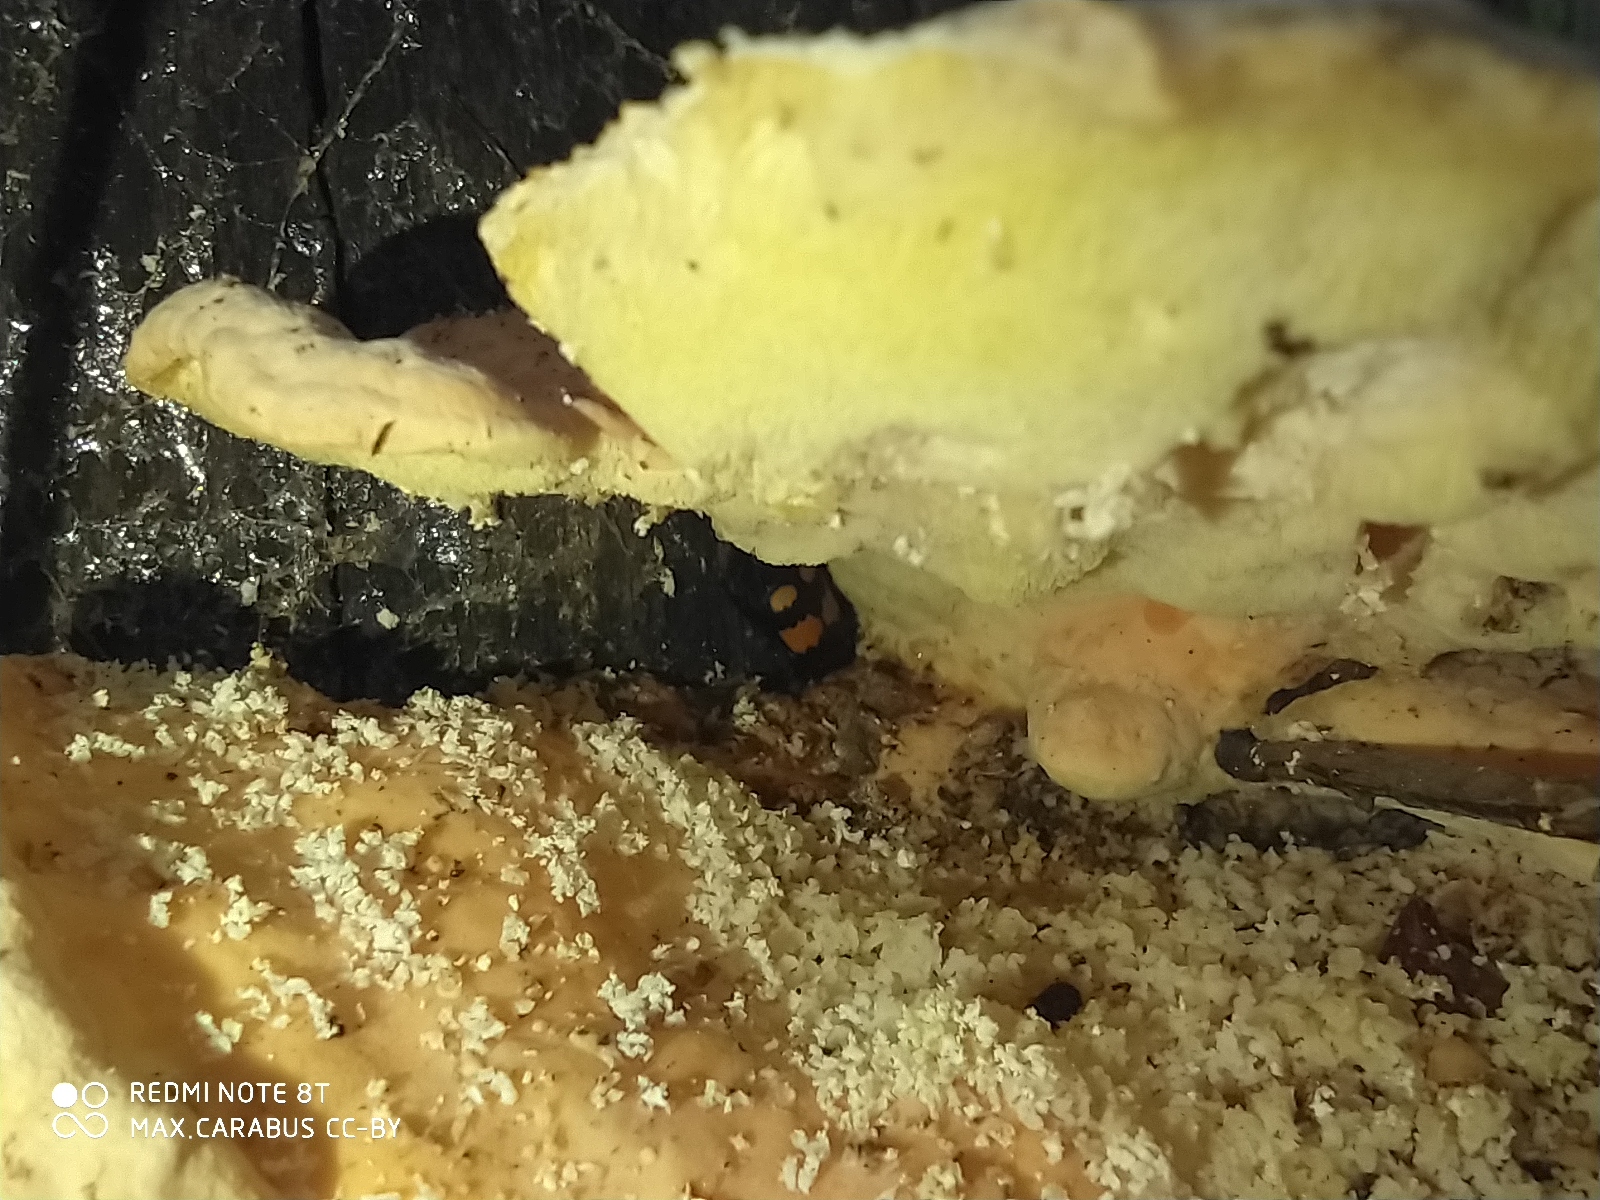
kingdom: Animalia
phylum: Arthropoda
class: Insecta
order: Coleoptera
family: Staphylinidae
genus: Nicrophorus
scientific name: Nicrophorus vespilloides
